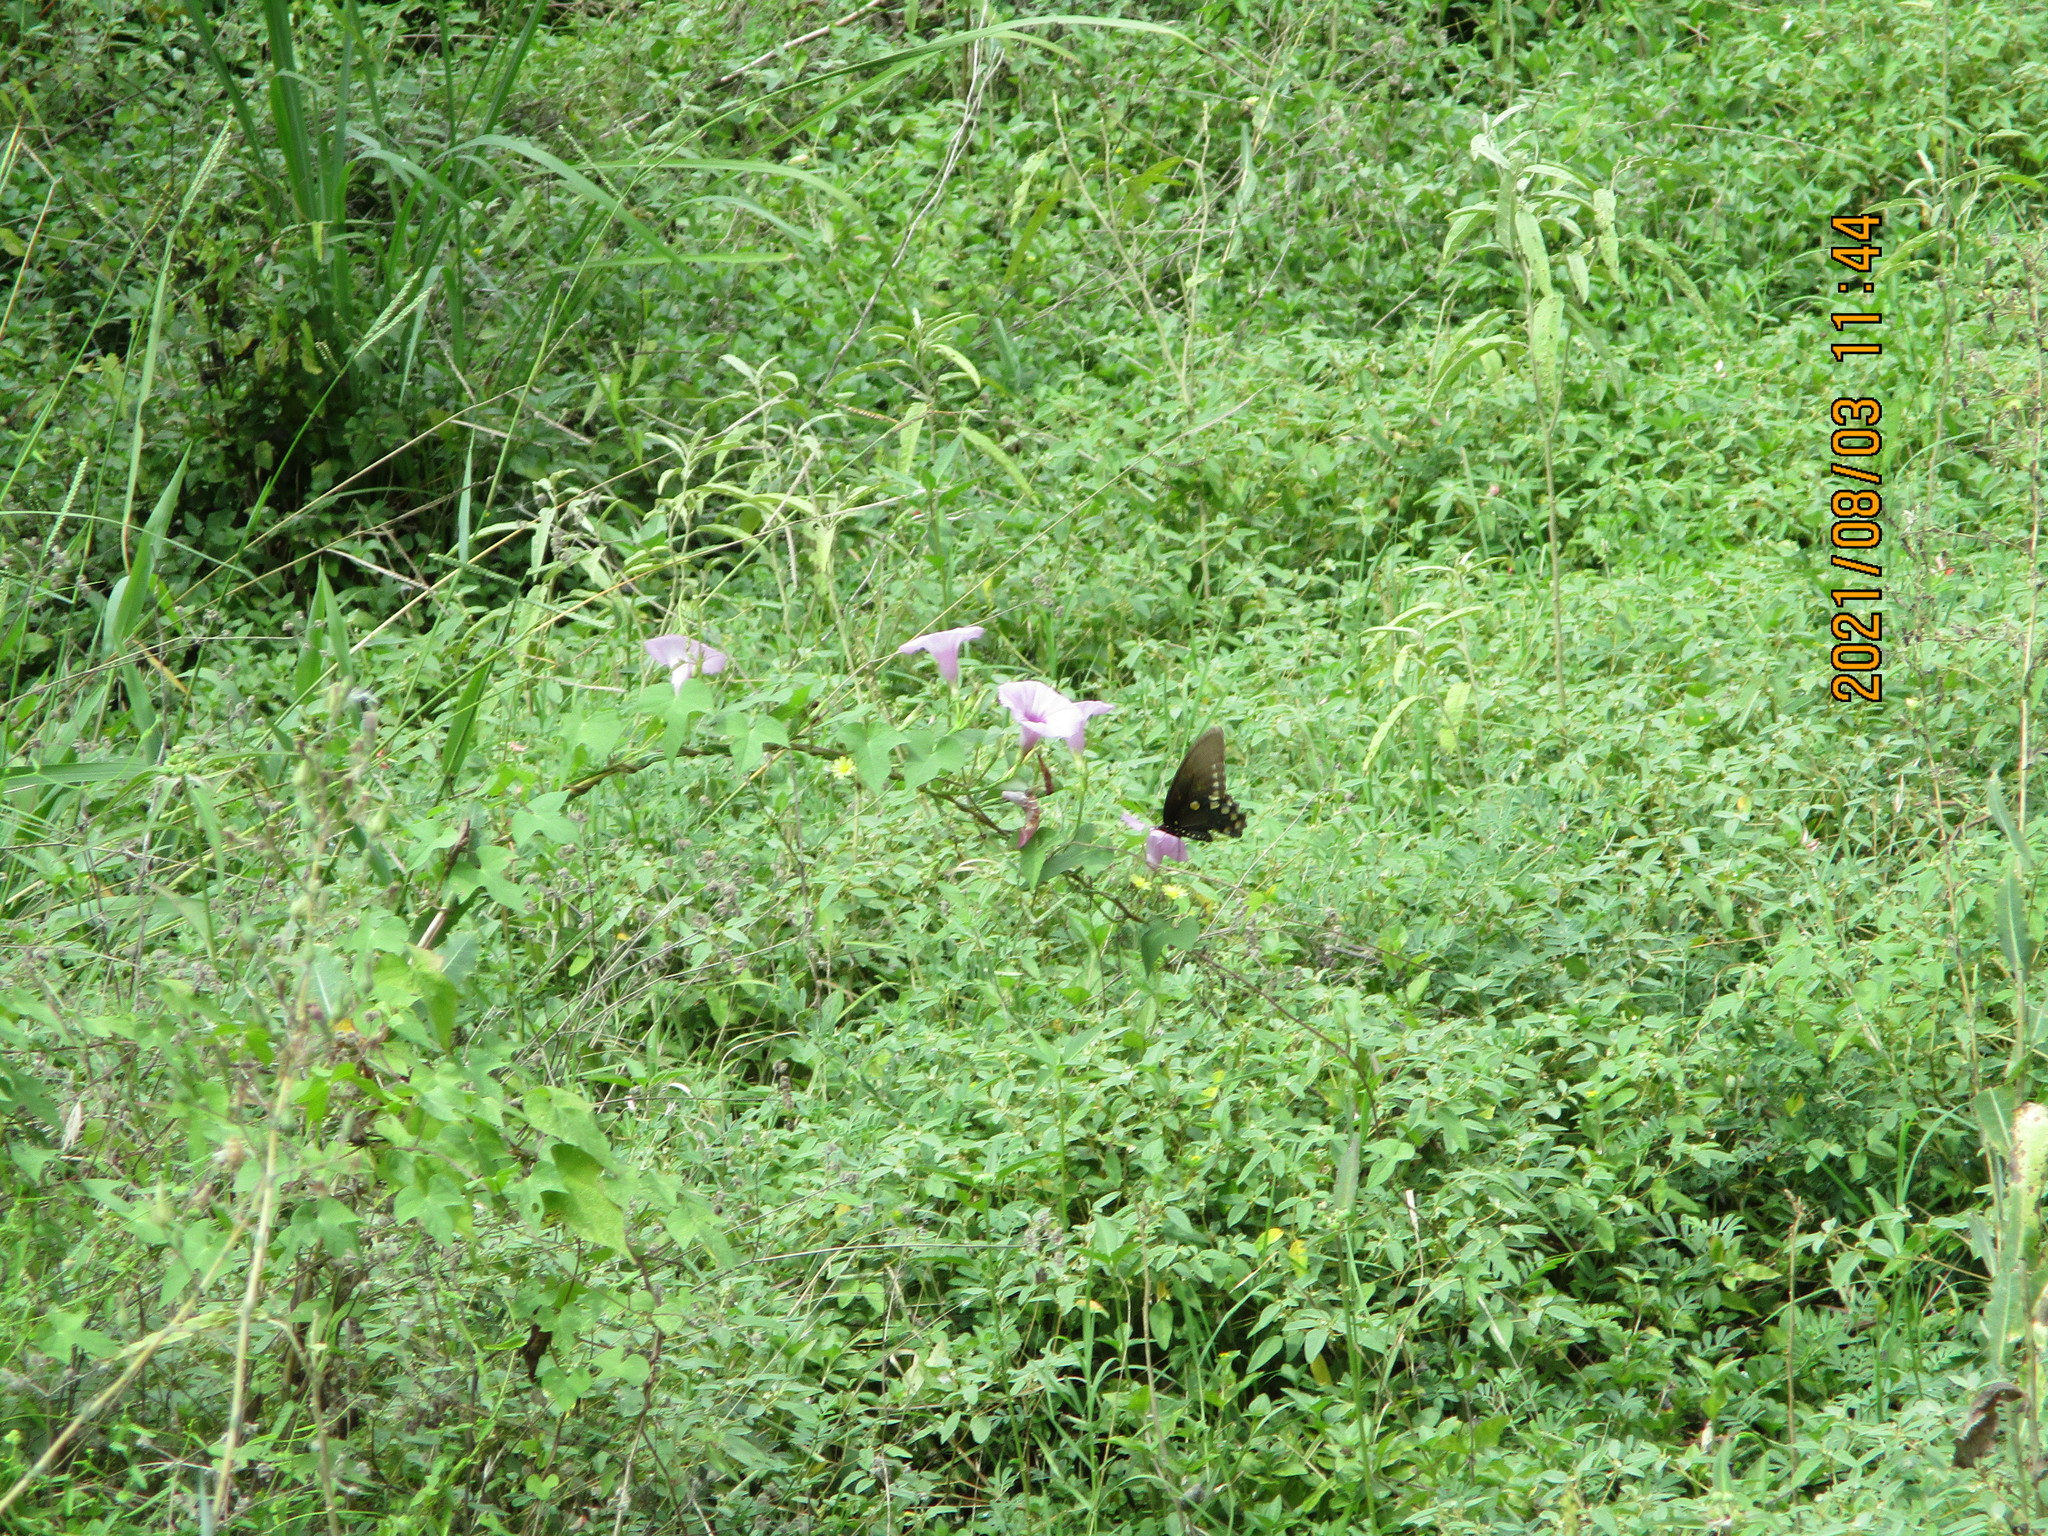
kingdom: Animalia
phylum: Arthropoda
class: Insecta
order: Lepidoptera
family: Papilionidae
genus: Battus
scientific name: Battus philenor
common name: Pipevine swallowtail
